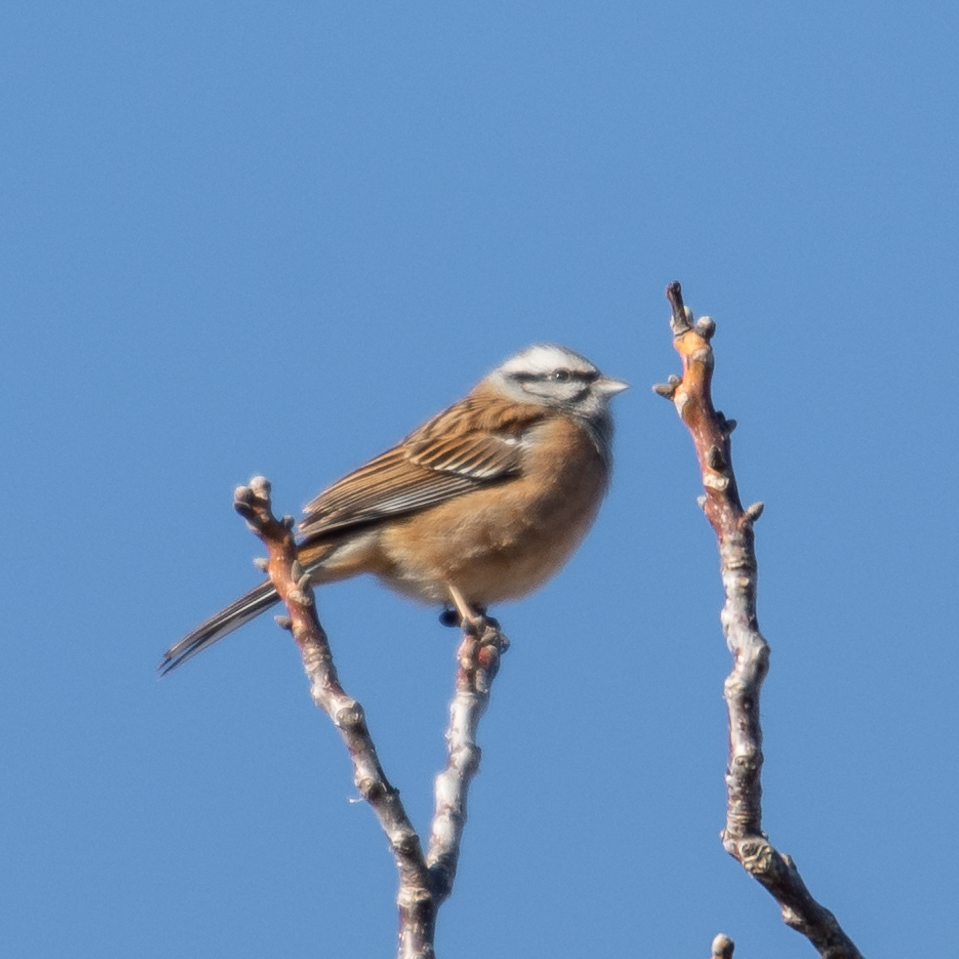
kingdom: Animalia
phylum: Chordata
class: Aves
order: Passeriformes
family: Emberizidae
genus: Emberiza
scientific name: Emberiza cia
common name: Rock bunting
